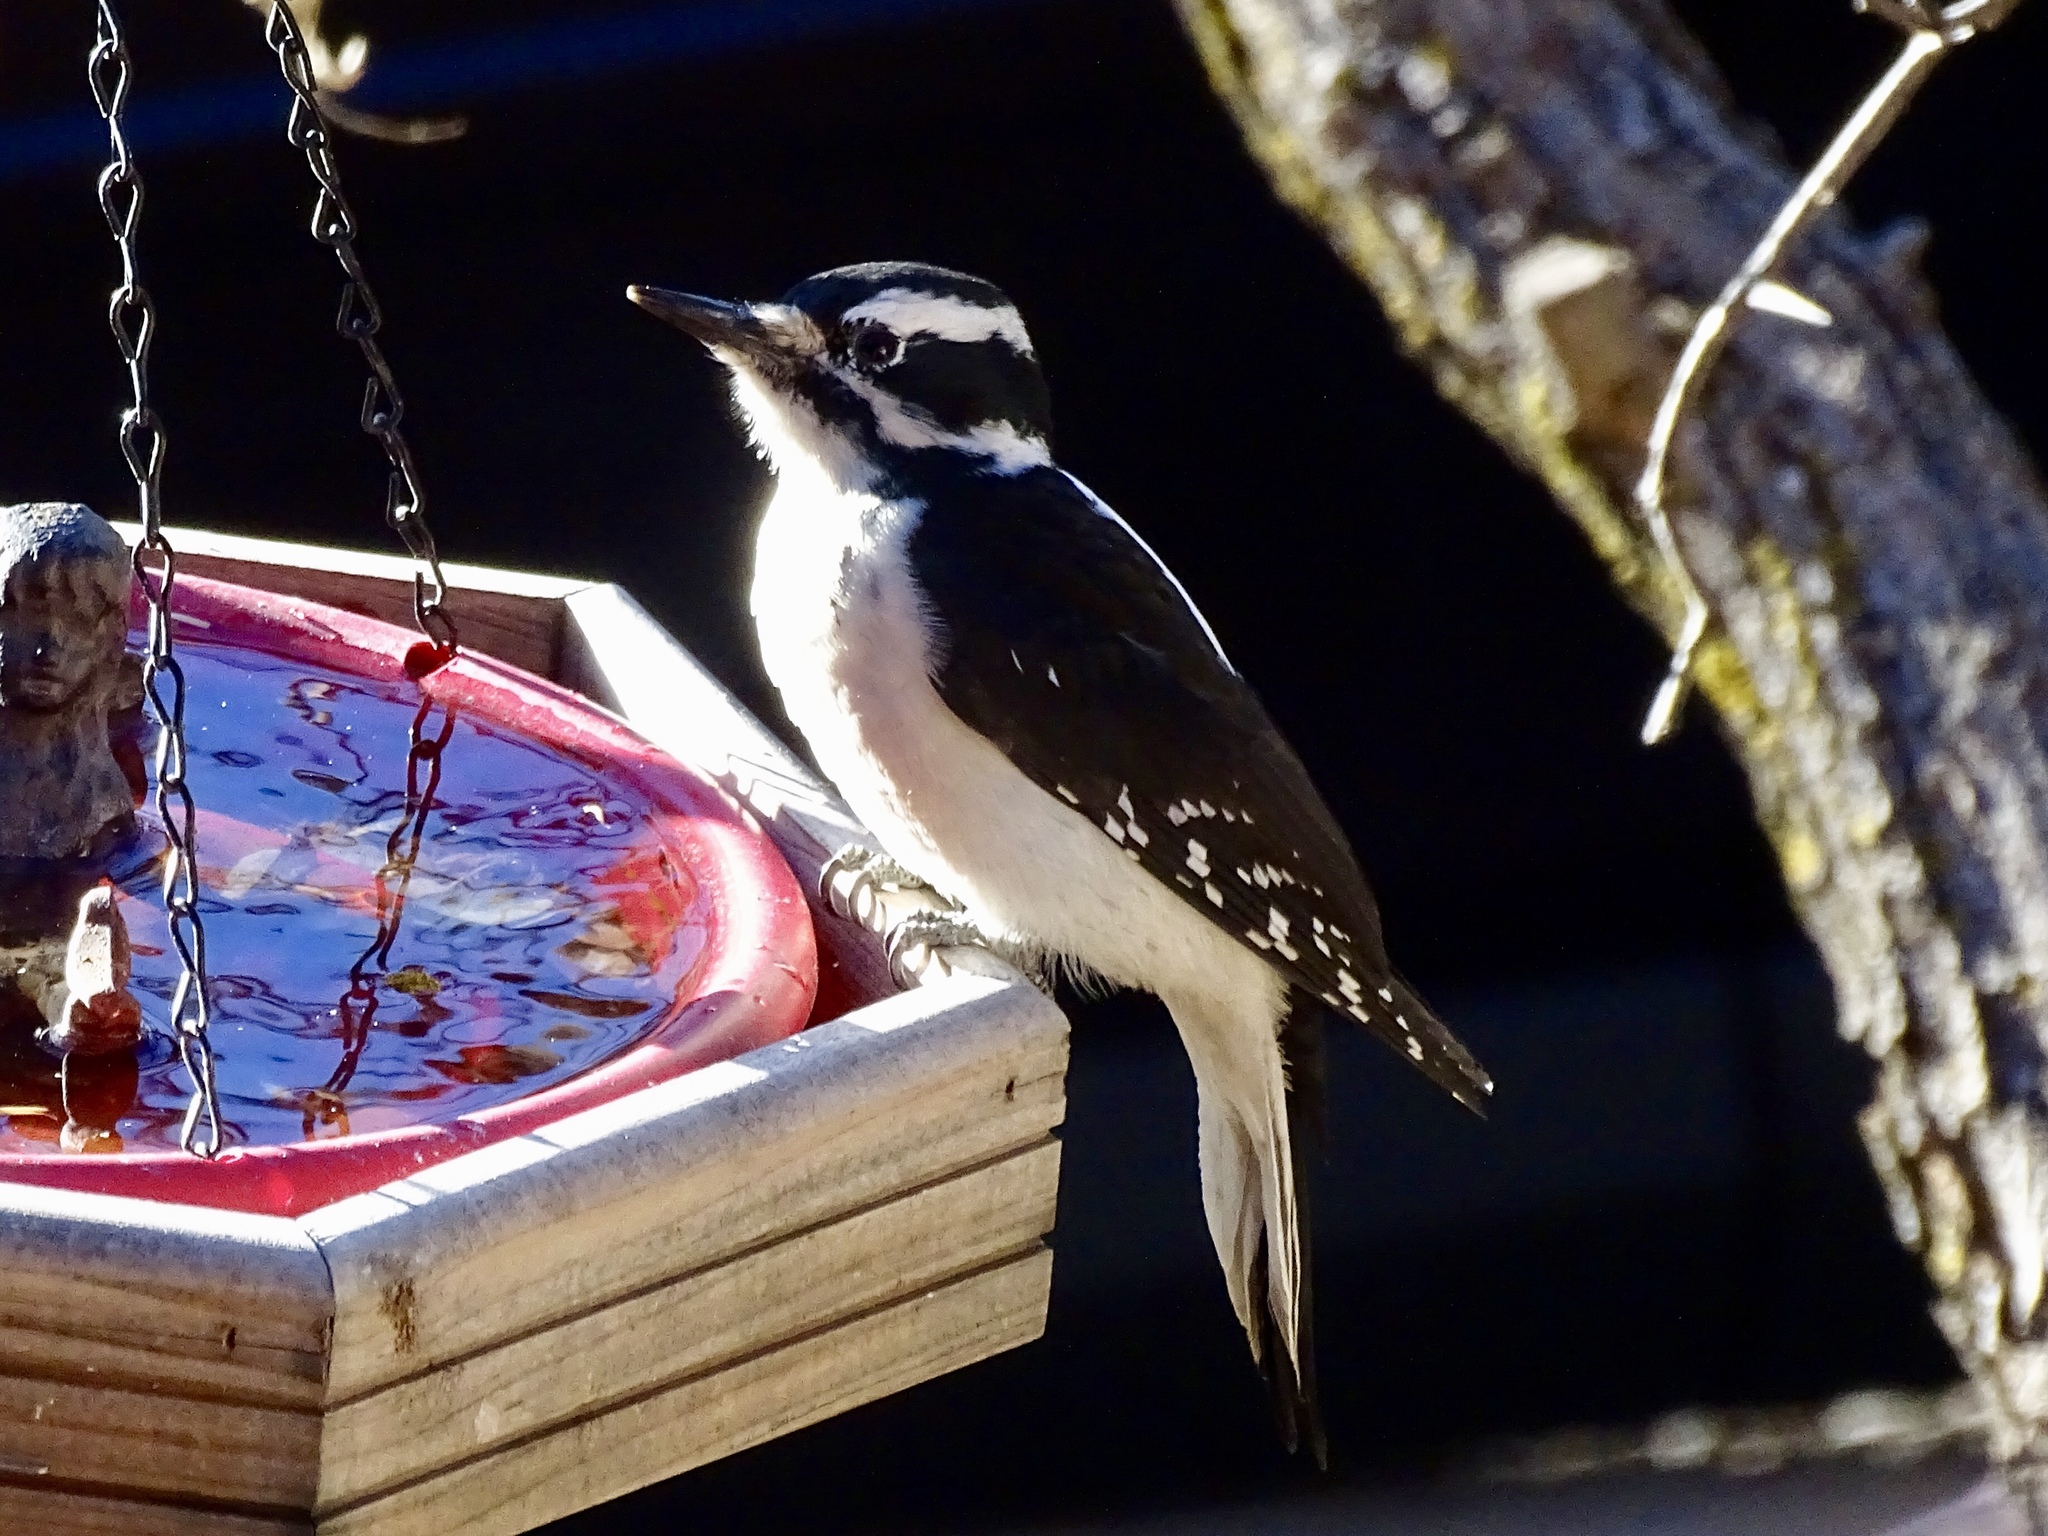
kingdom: Animalia
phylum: Chordata
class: Aves
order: Piciformes
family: Picidae
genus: Leuconotopicus
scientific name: Leuconotopicus villosus
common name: Hairy woodpecker
